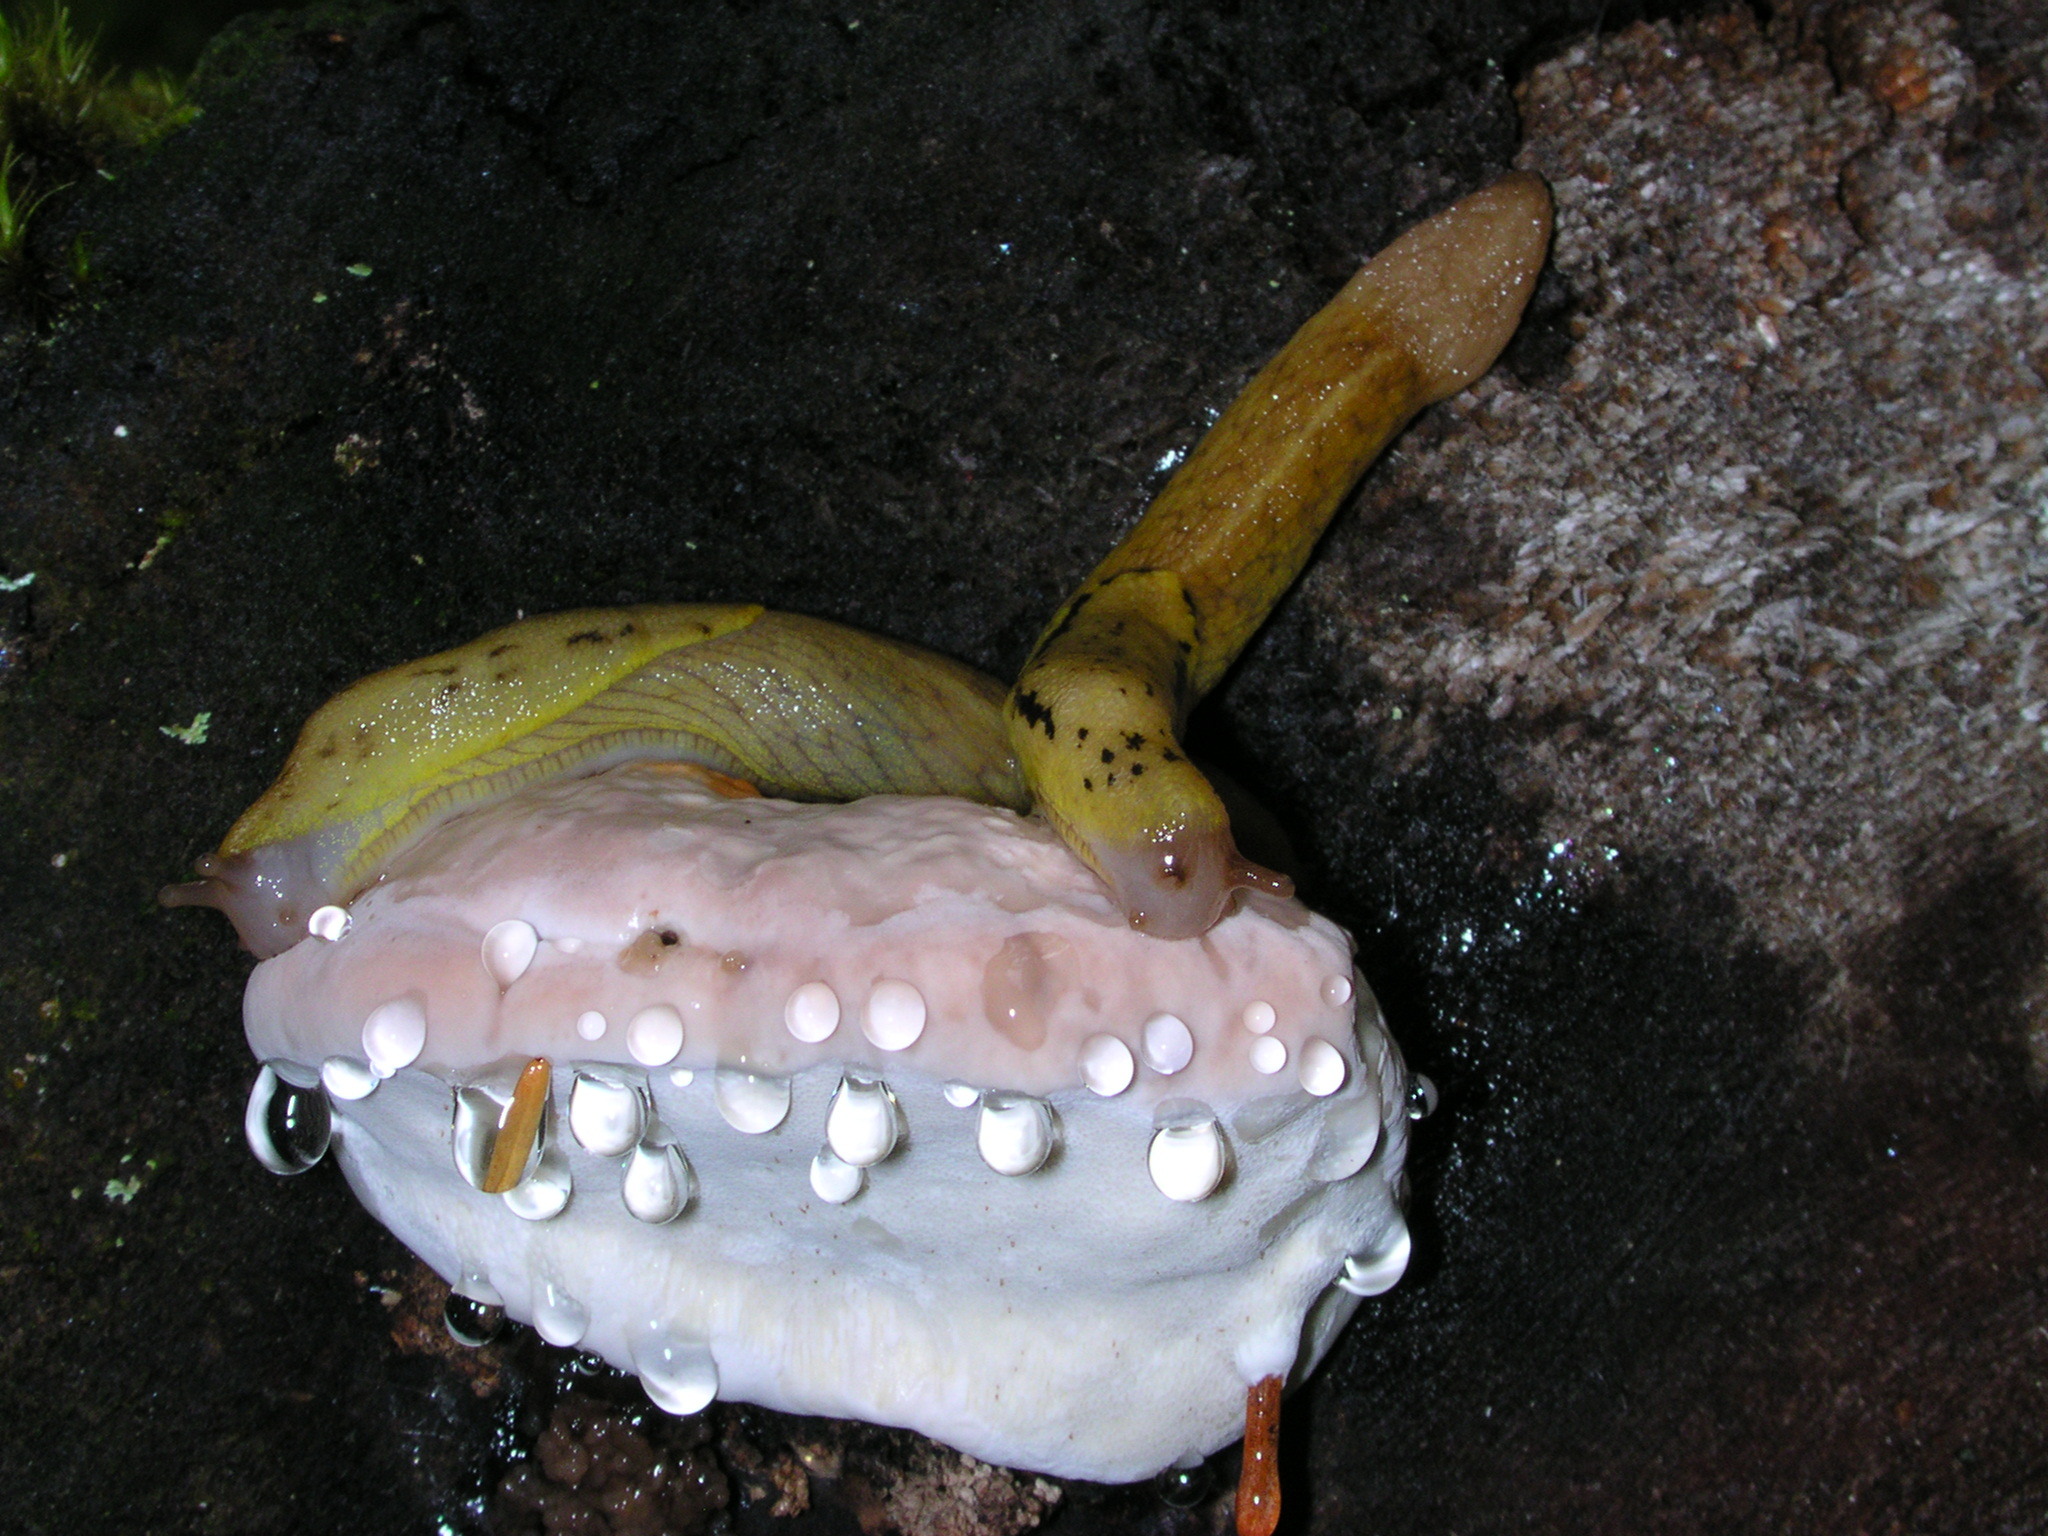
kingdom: Animalia
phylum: Mollusca
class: Gastropoda
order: Stylommatophora
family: Ariolimacidae
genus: Prophysaon
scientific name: Prophysaon foliolatum
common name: Yellow-bordered taildropper
